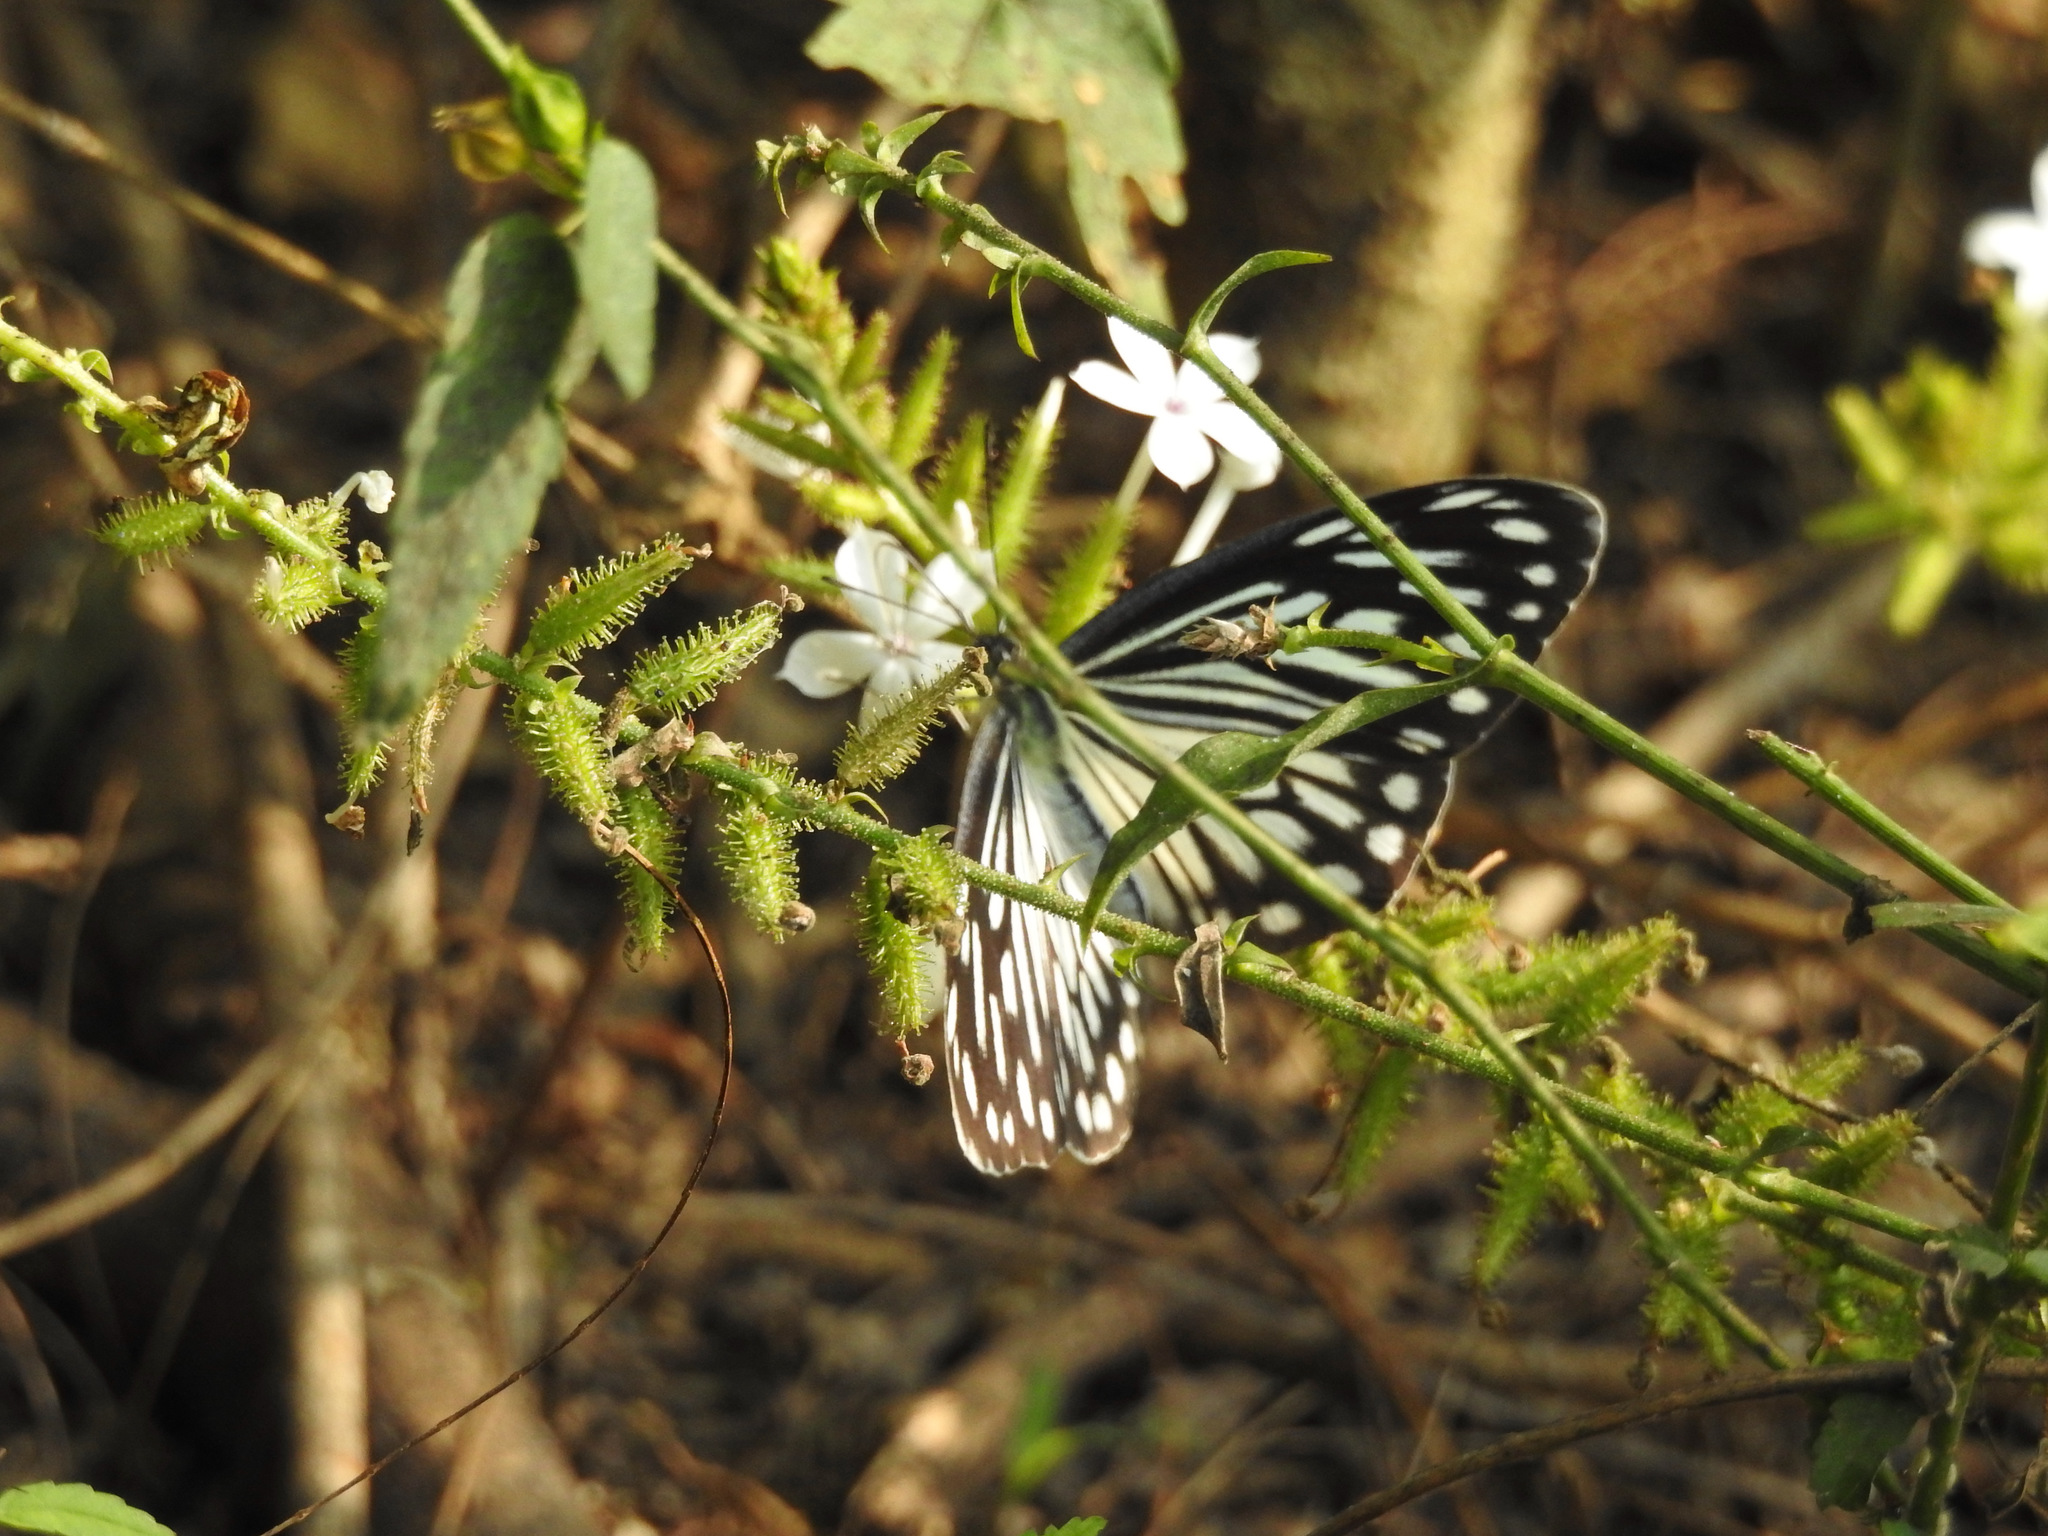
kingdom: Plantae
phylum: Tracheophyta
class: Magnoliopsida
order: Caryophyllales
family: Plumbaginaceae
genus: Plumbago
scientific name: Plumbago zeylanica
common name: Doctorbush
